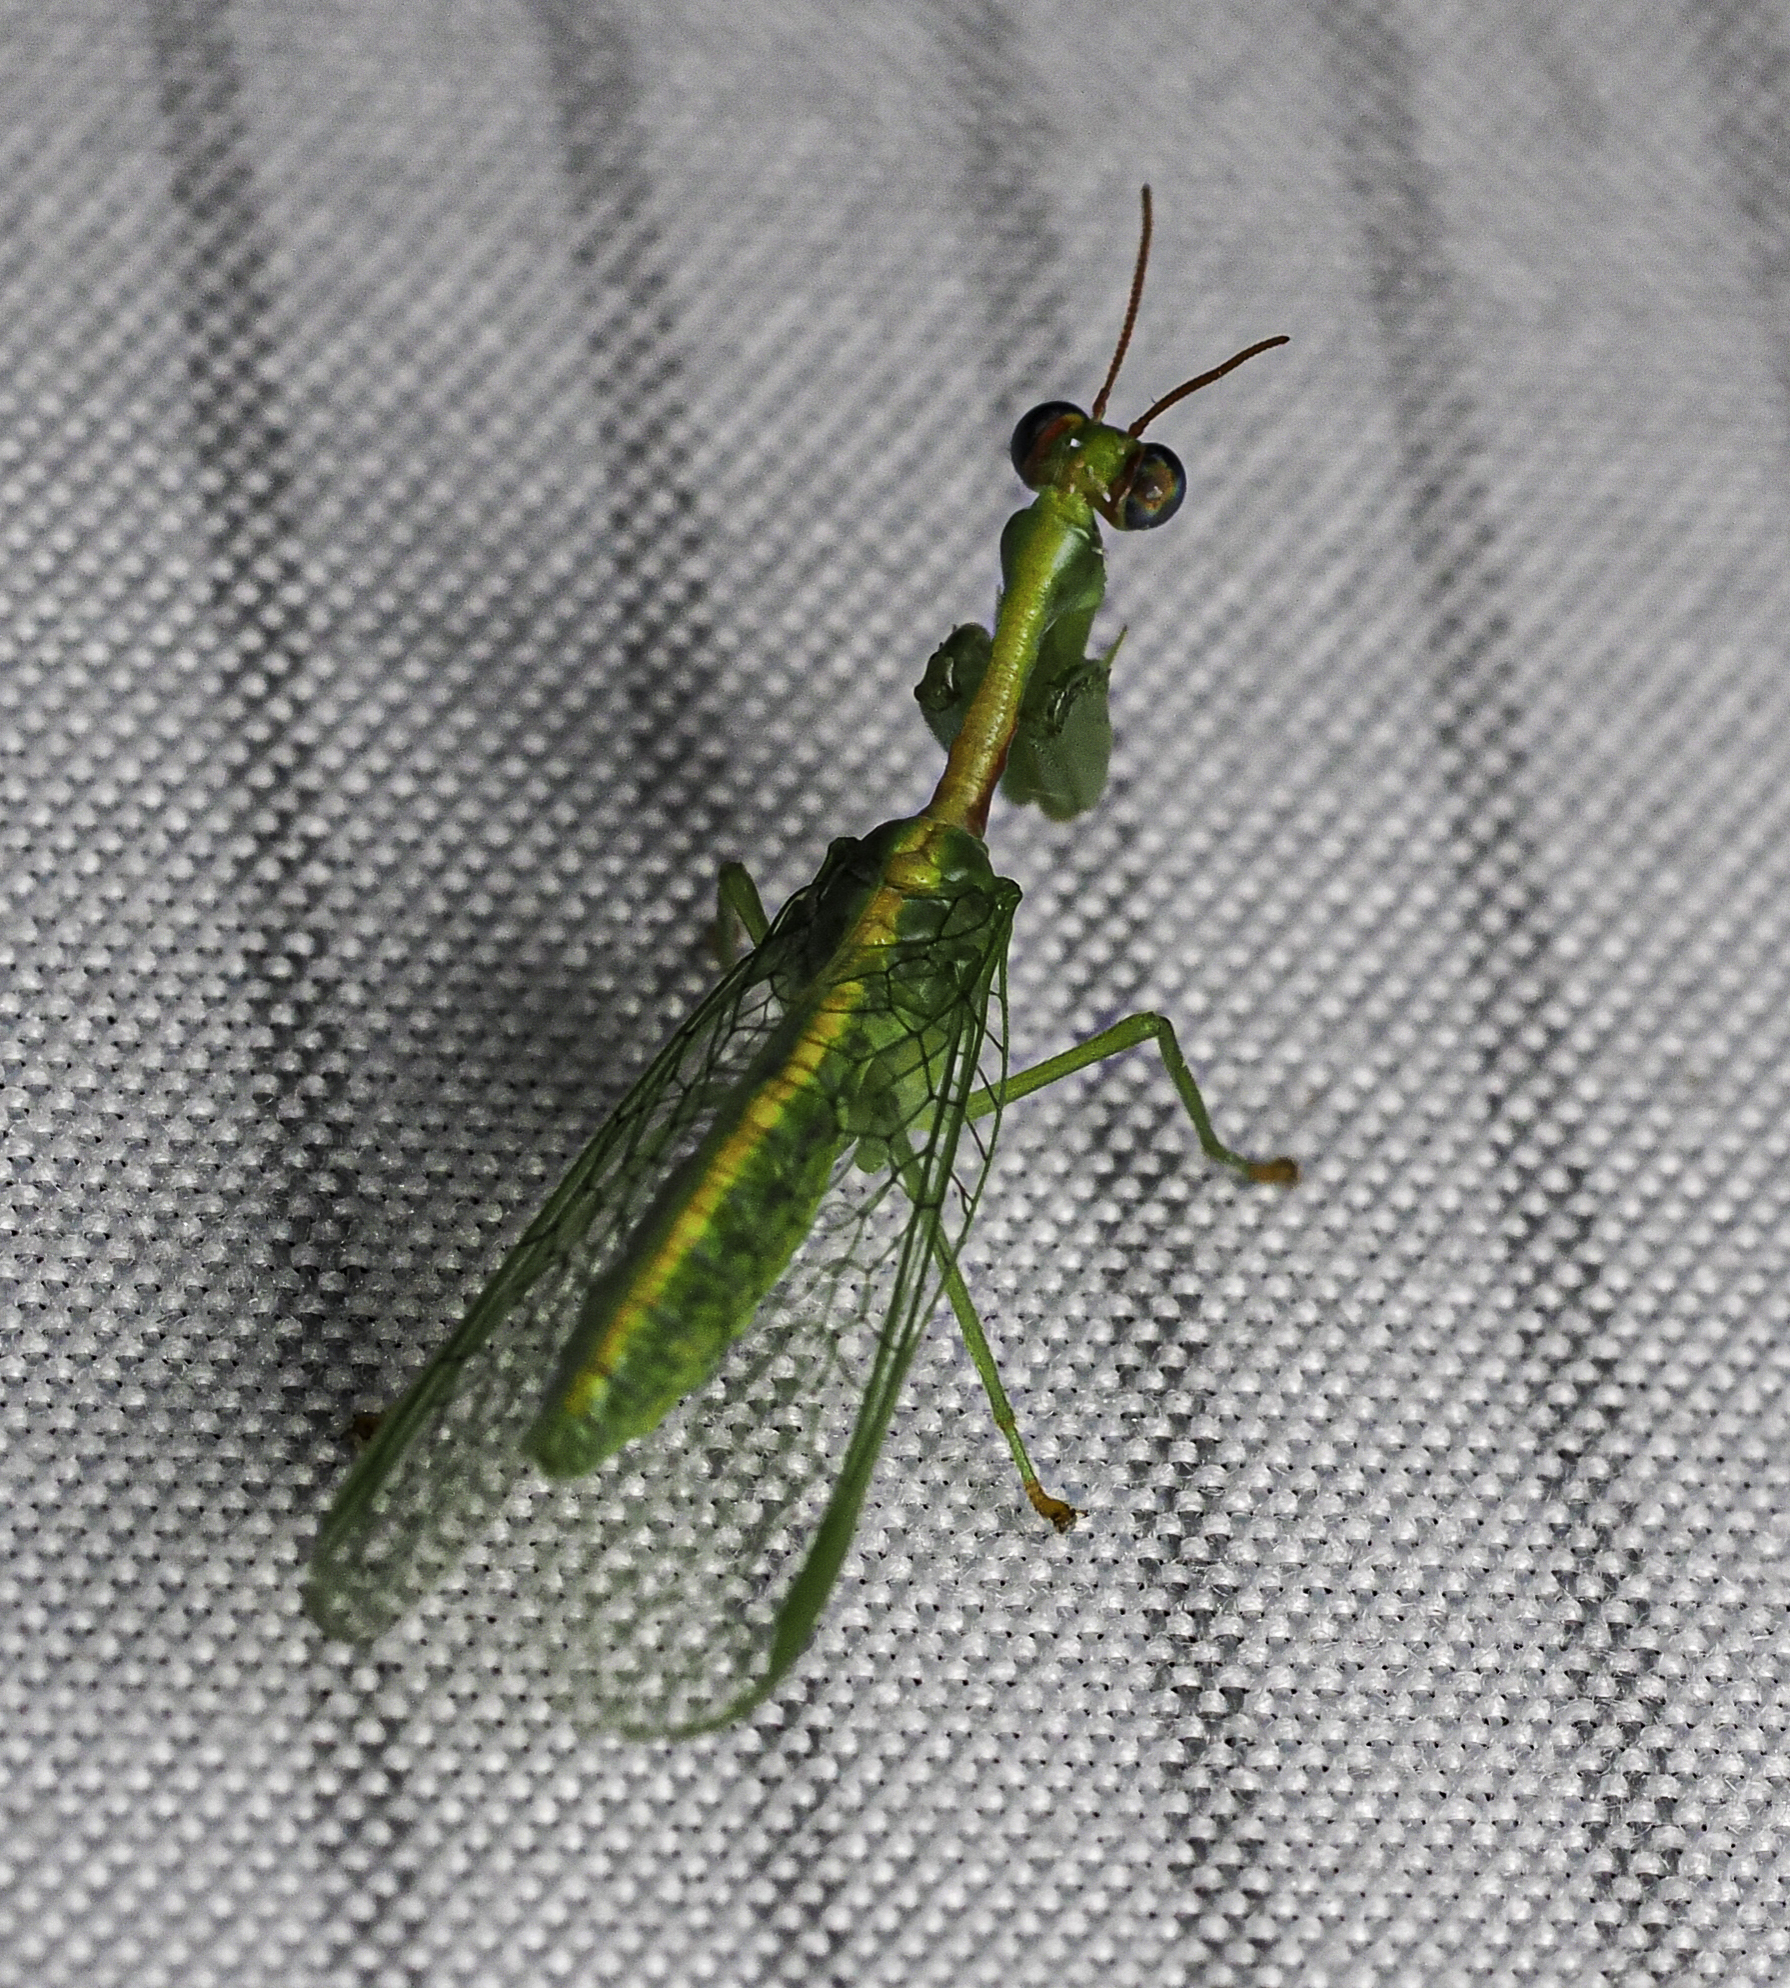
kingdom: Animalia
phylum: Arthropoda
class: Insecta
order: Neuroptera
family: Mantispidae
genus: Zeugomantispa
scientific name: Zeugomantispa minuta
